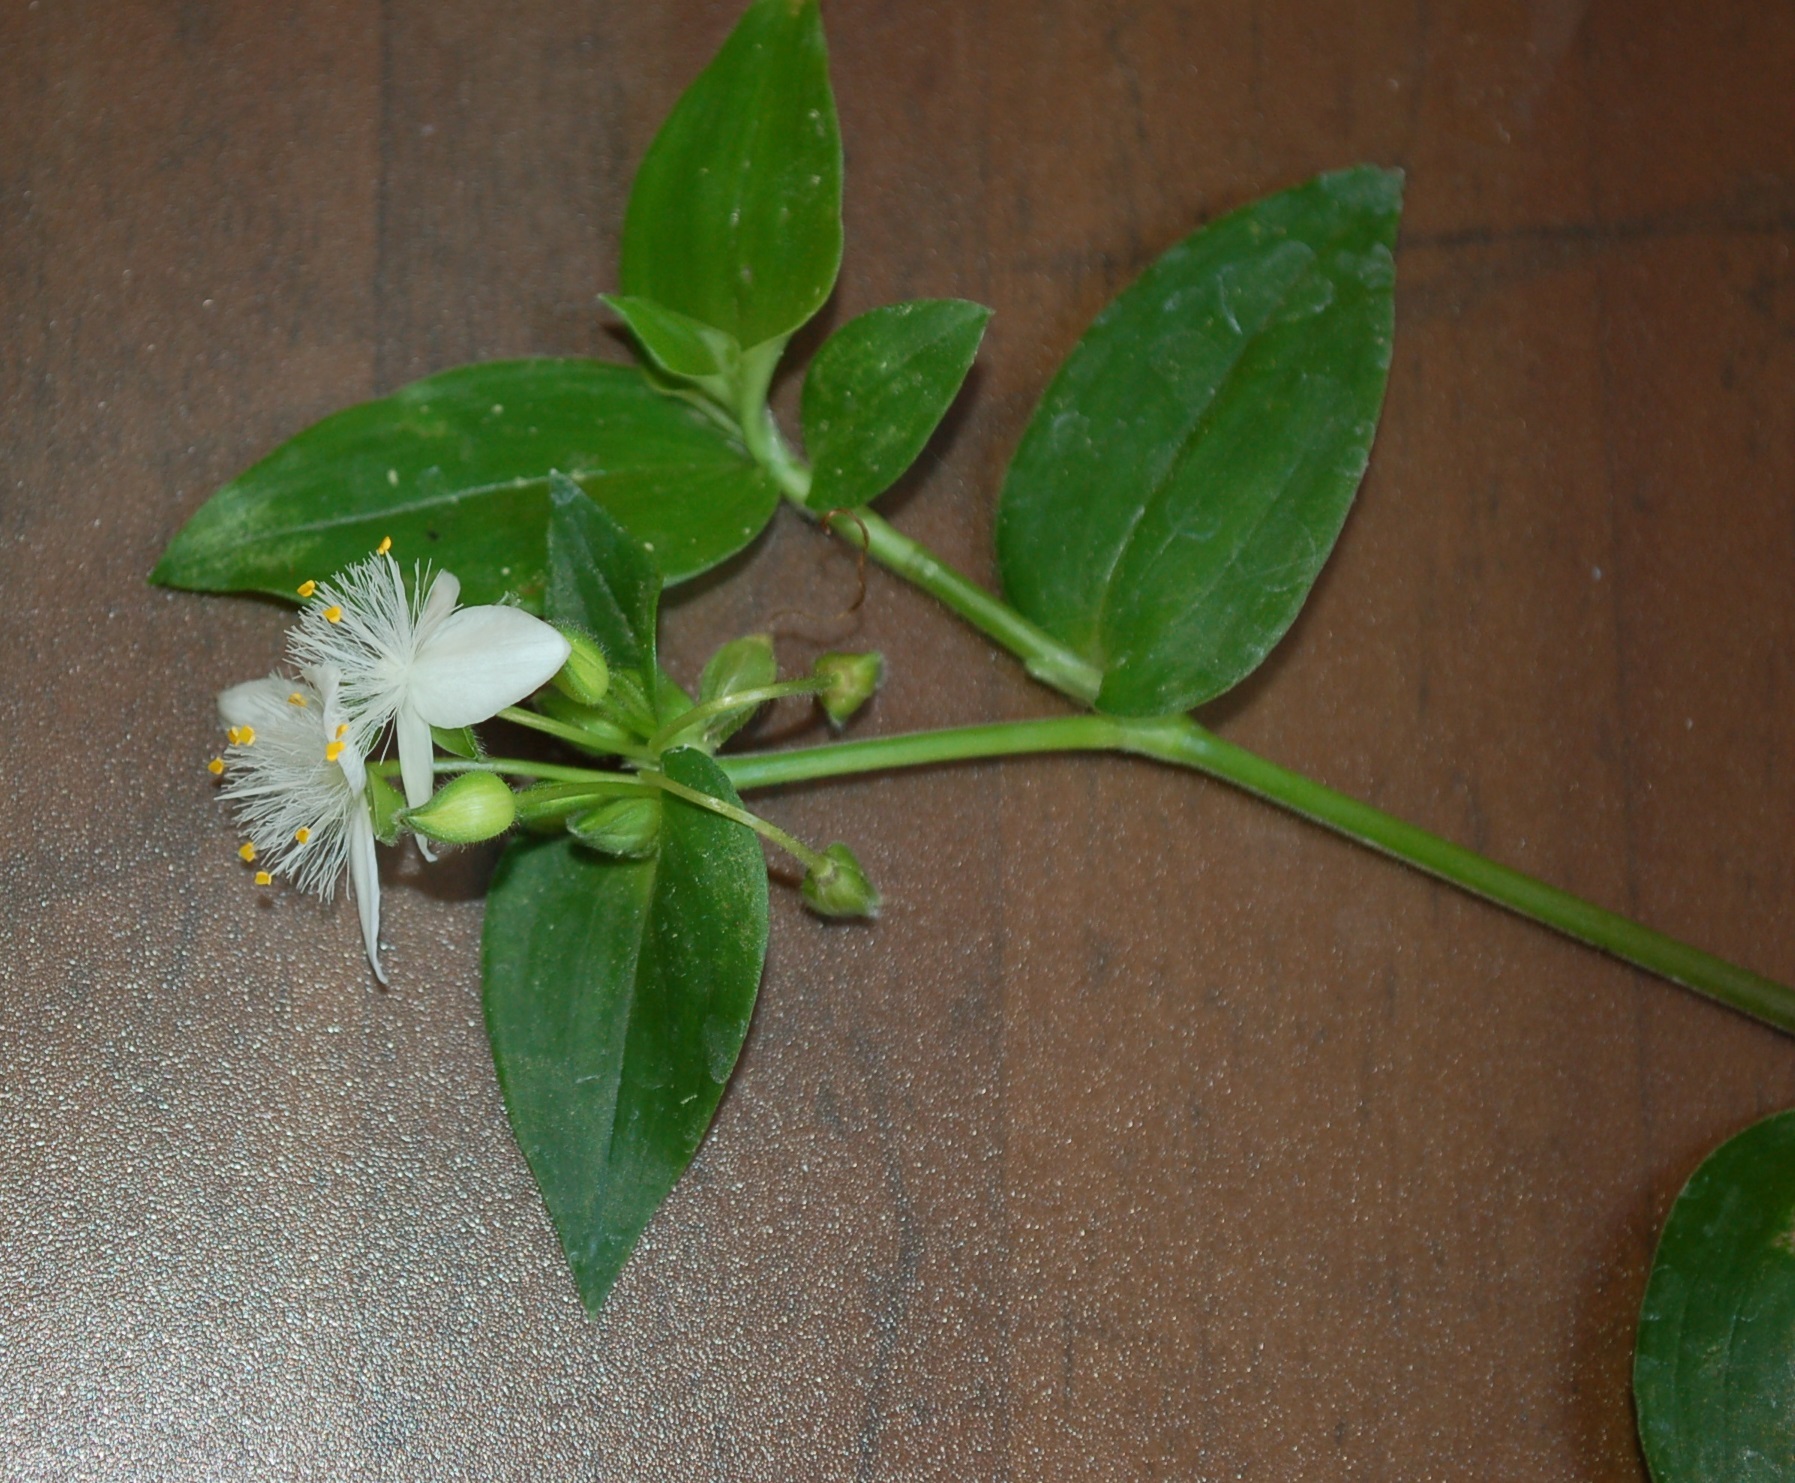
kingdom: Plantae
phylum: Tracheophyta
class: Liliopsida
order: Commelinales
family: Commelinaceae
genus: Tradescantia
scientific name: Tradescantia fluminensis
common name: Wandering-jew
